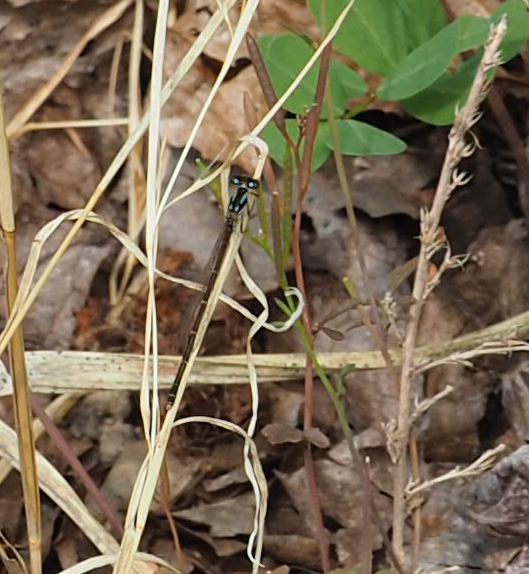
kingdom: Animalia
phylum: Arthropoda
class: Insecta
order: Odonata
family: Coenagrionidae
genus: Ischnura
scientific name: Ischnura posita
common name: Fragile forktail
